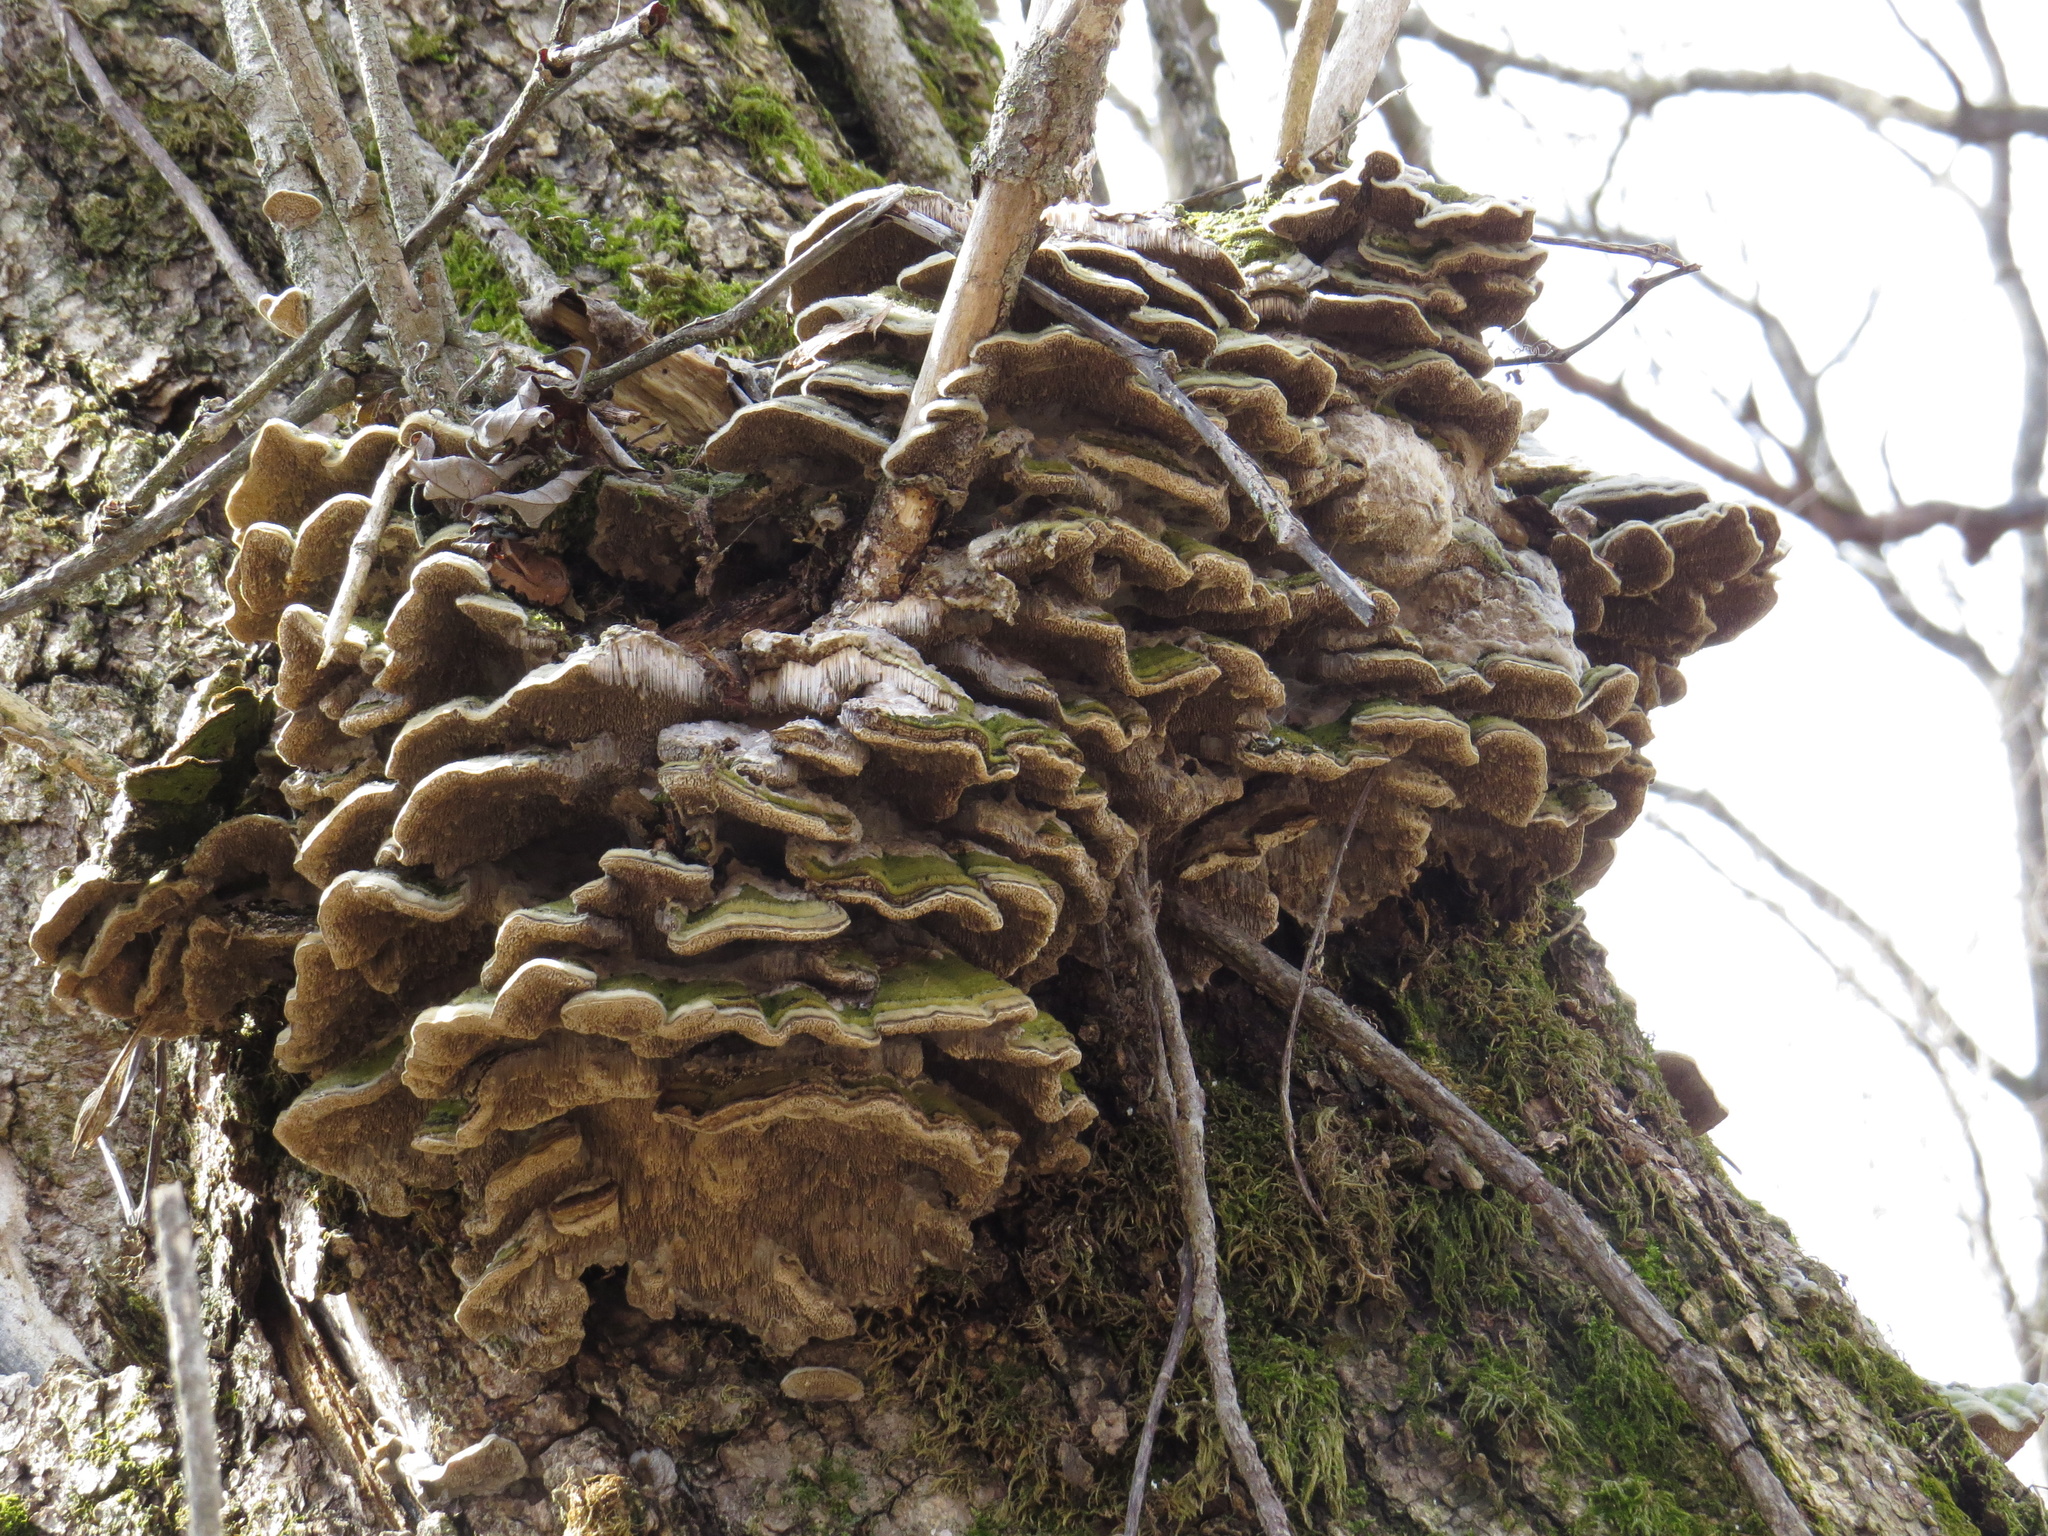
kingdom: Fungi
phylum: Basidiomycota
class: Agaricomycetes
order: Polyporales
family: Cerrenaceae
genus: Cerrena
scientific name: Cerrena unicolor
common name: Mossy maze polypore
